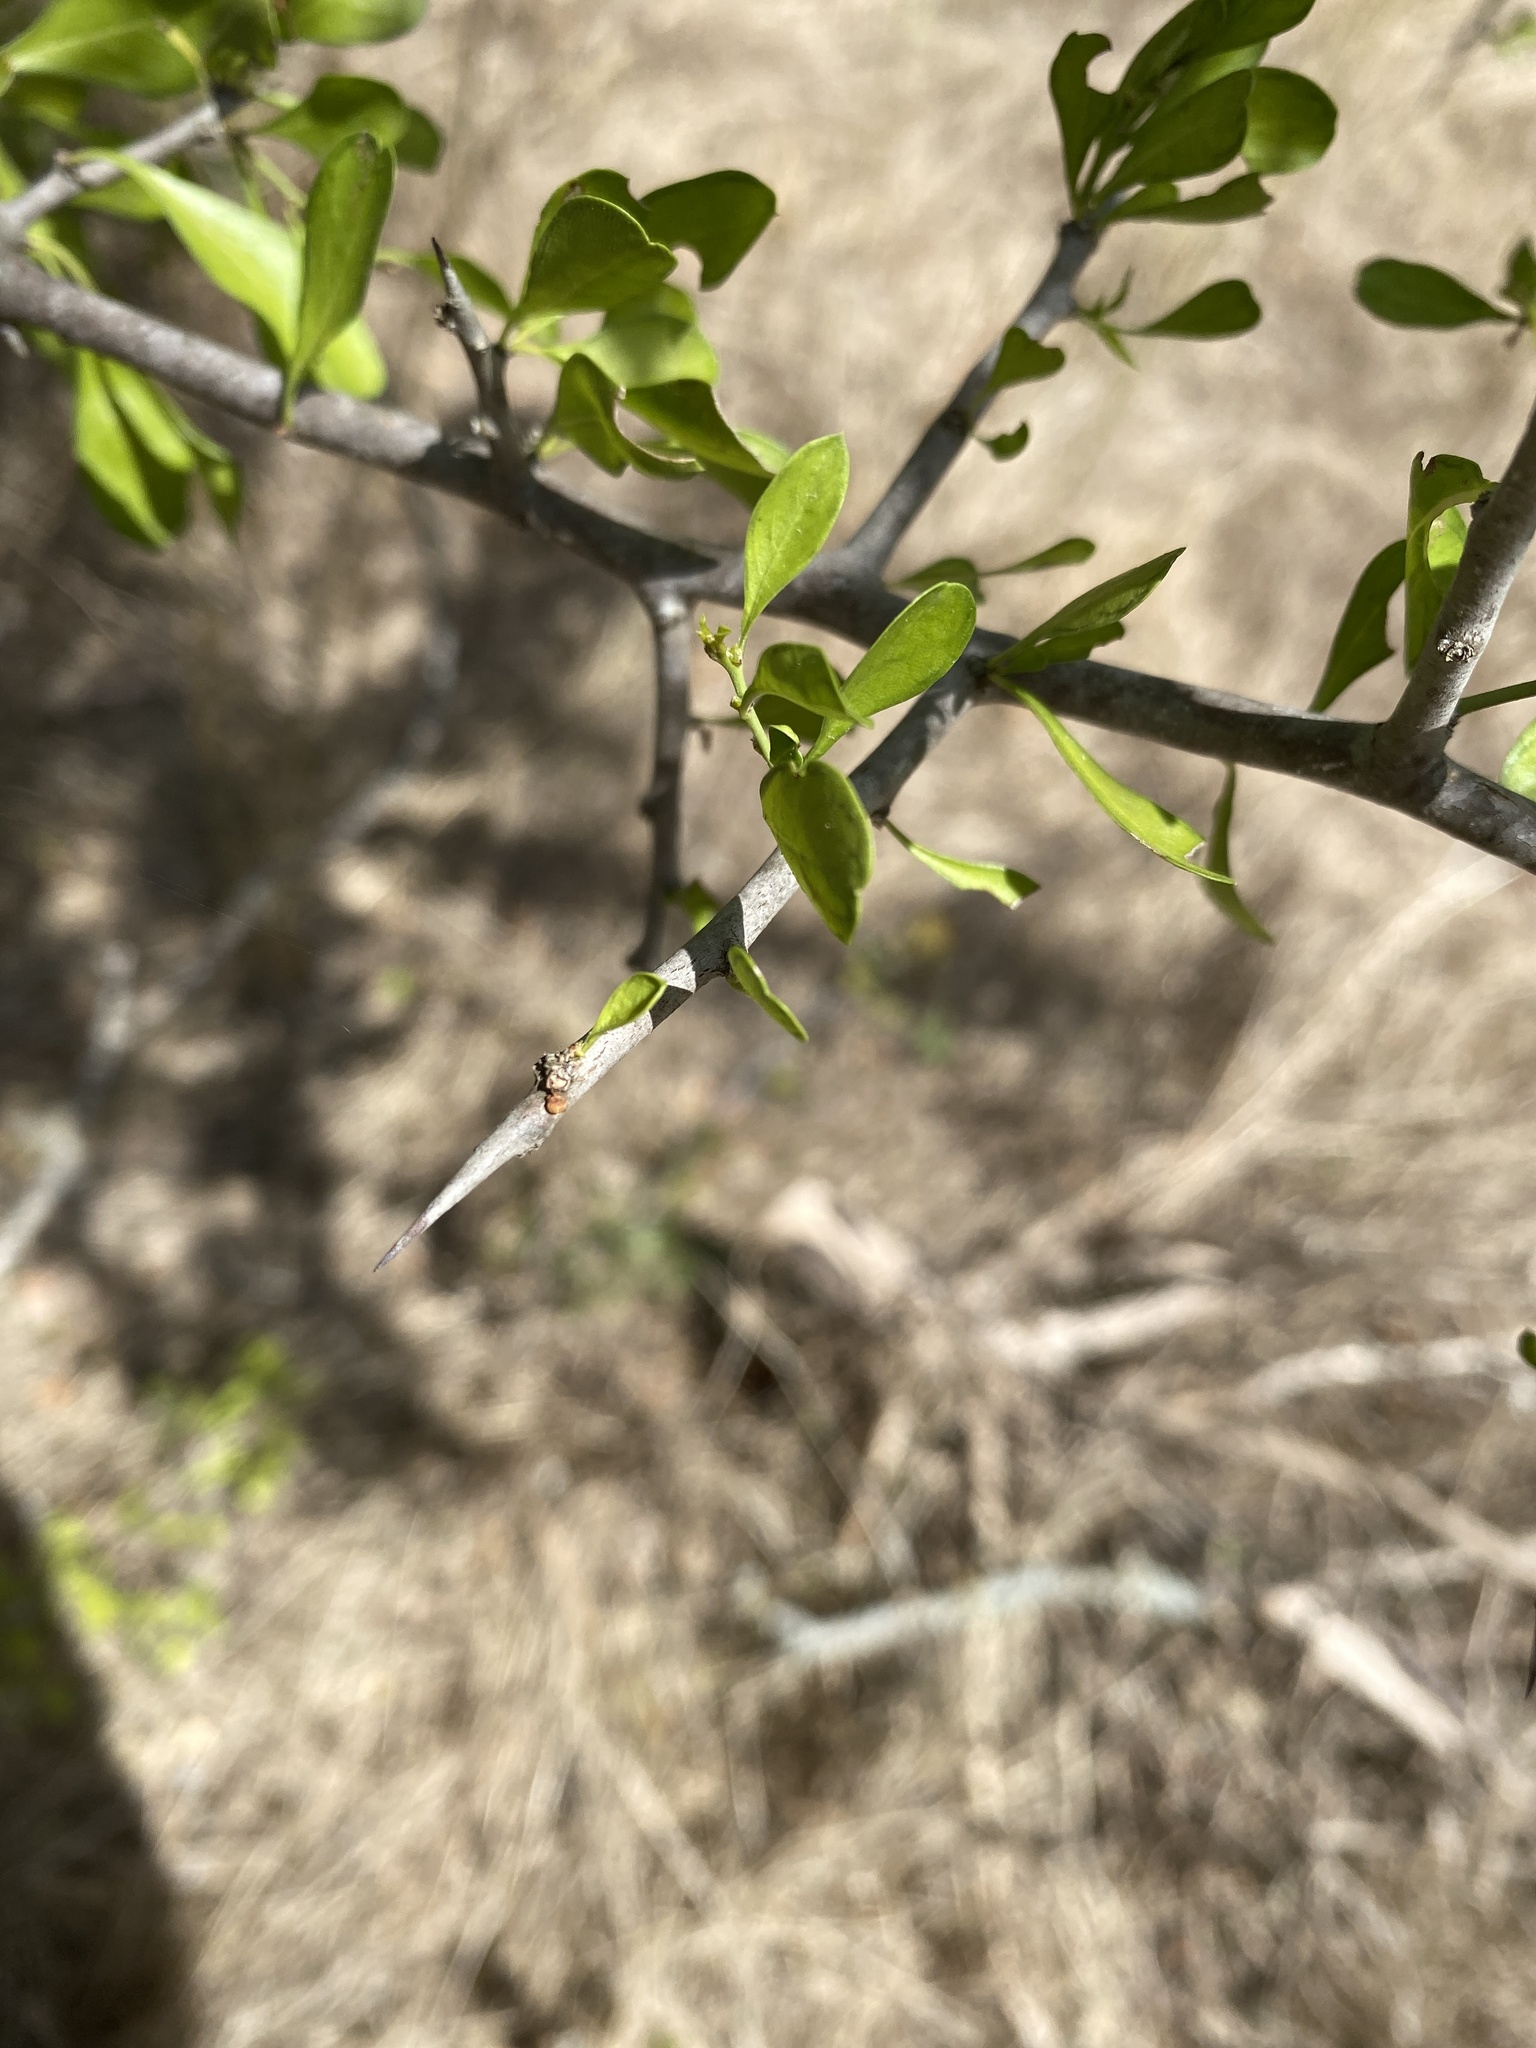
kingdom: Plantae
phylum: Tracheophyta
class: Magnoliopsida
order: Rosales
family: Rhamnaceae
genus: Condalia
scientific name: Condalia hookeri
